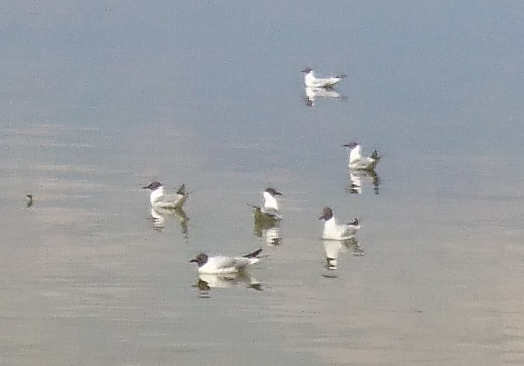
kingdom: Animalia
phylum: Chordata
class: Aves
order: Charadriiformes
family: Laridae
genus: Chroicocephalus
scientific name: Chroicocephalus ridibundus
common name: Black-headed gull
